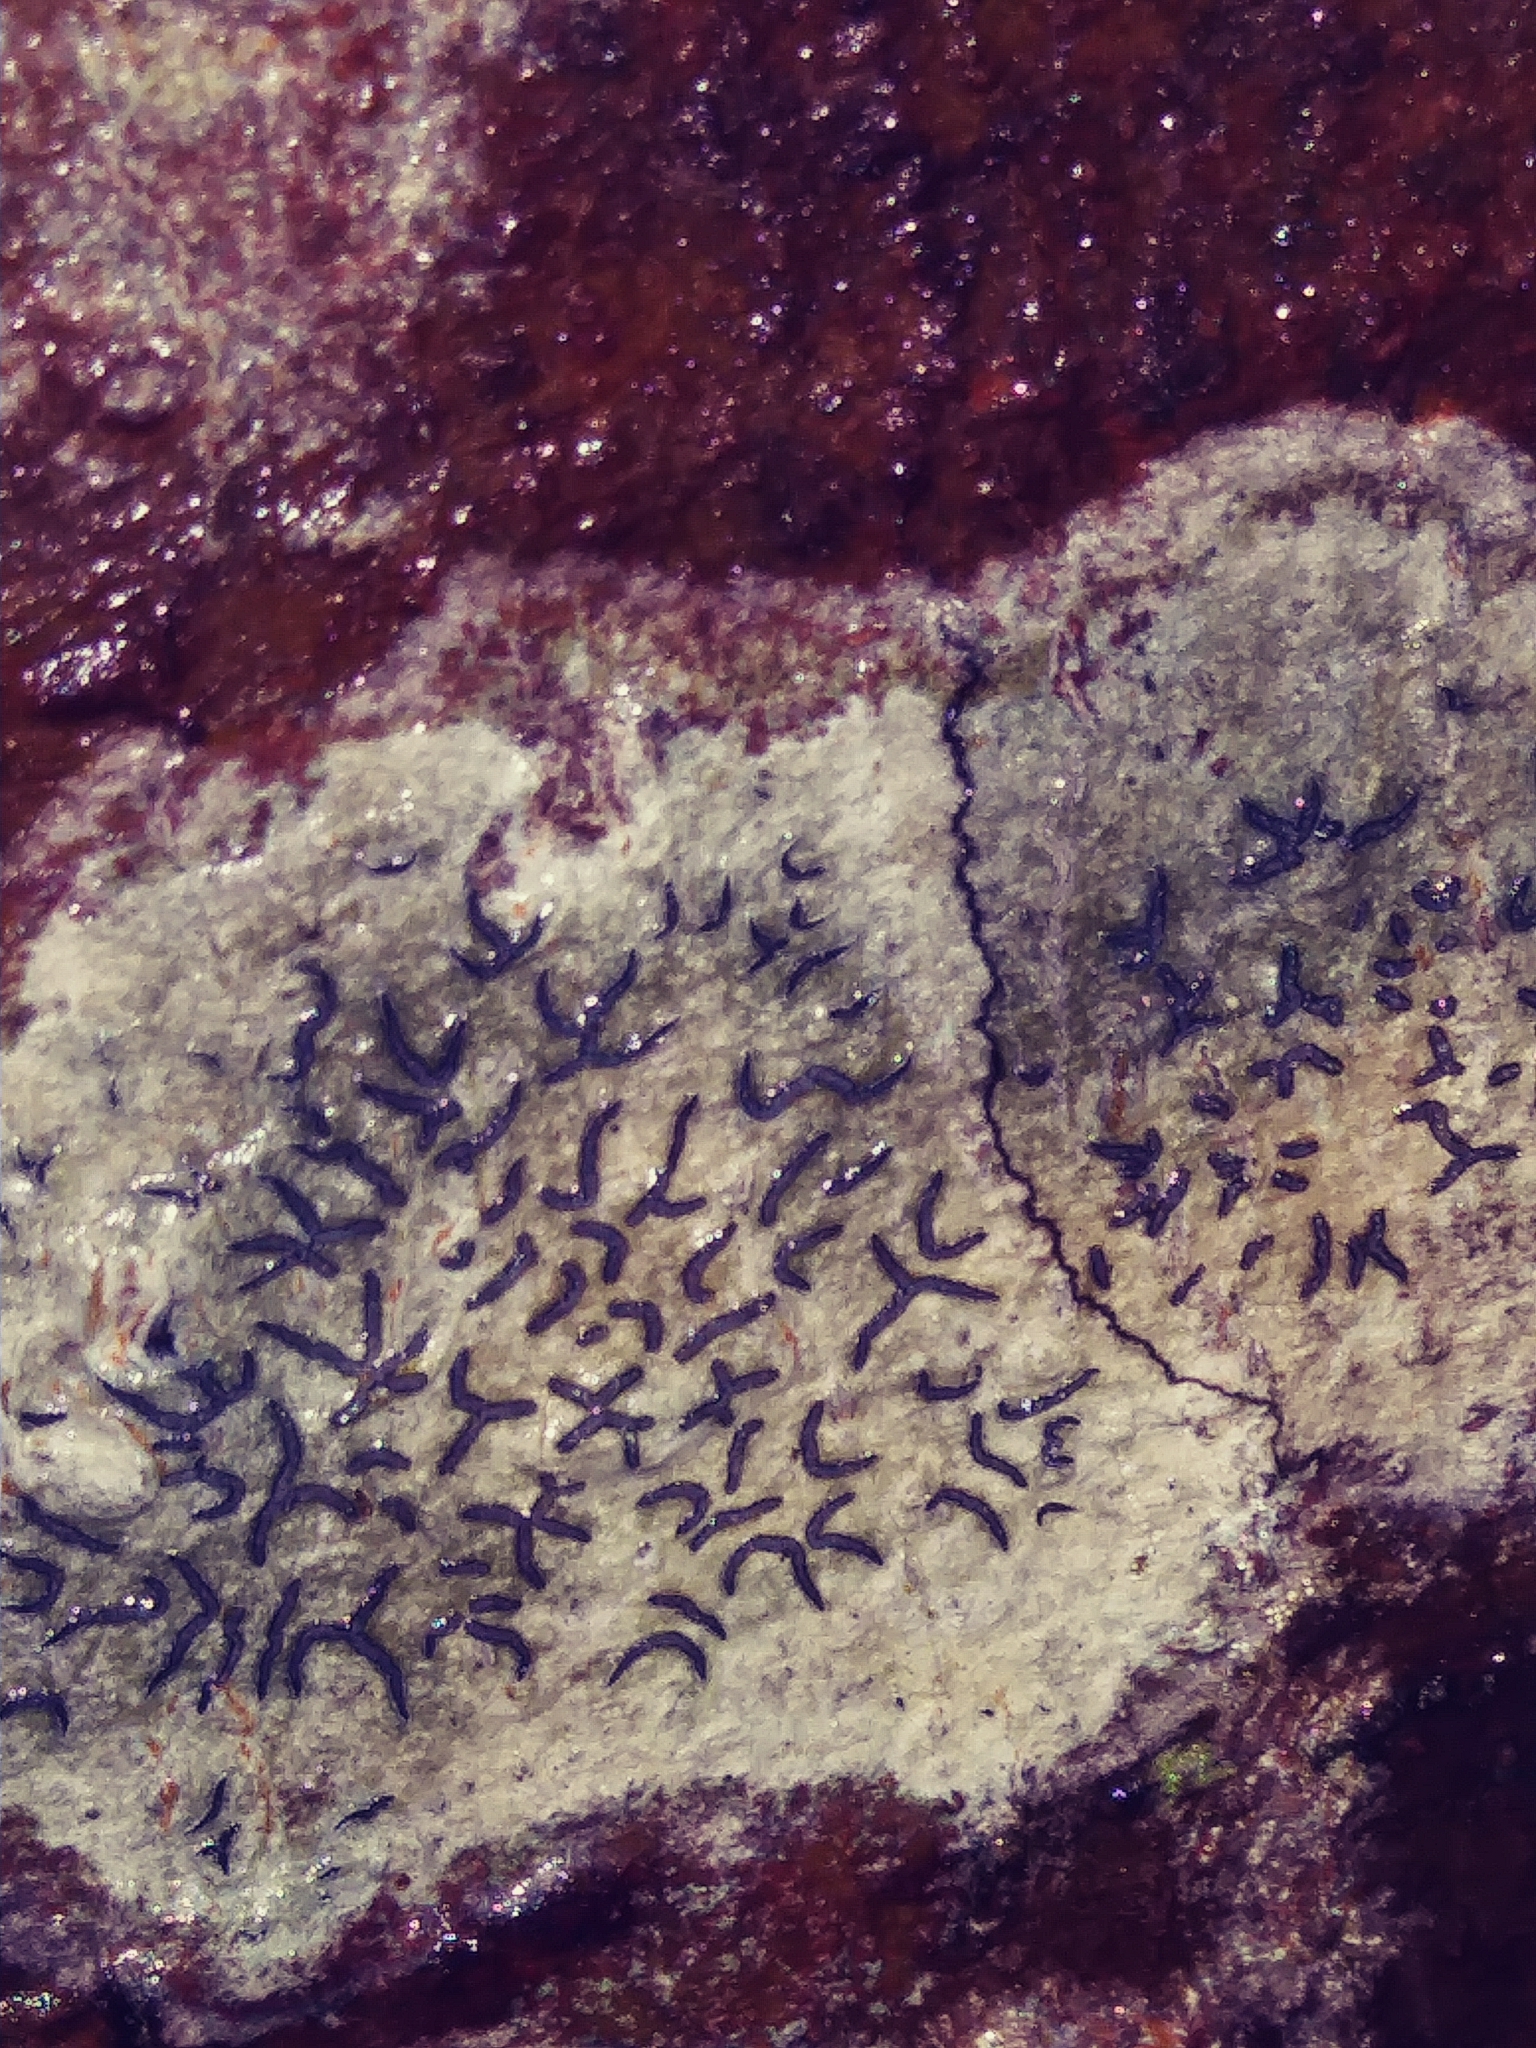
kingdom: Fungi
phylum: Ascomycota
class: Lecanoromycetes
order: Ostropales
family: Graphidaceae
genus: Graphis
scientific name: Graphis scripta
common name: Script lichen
